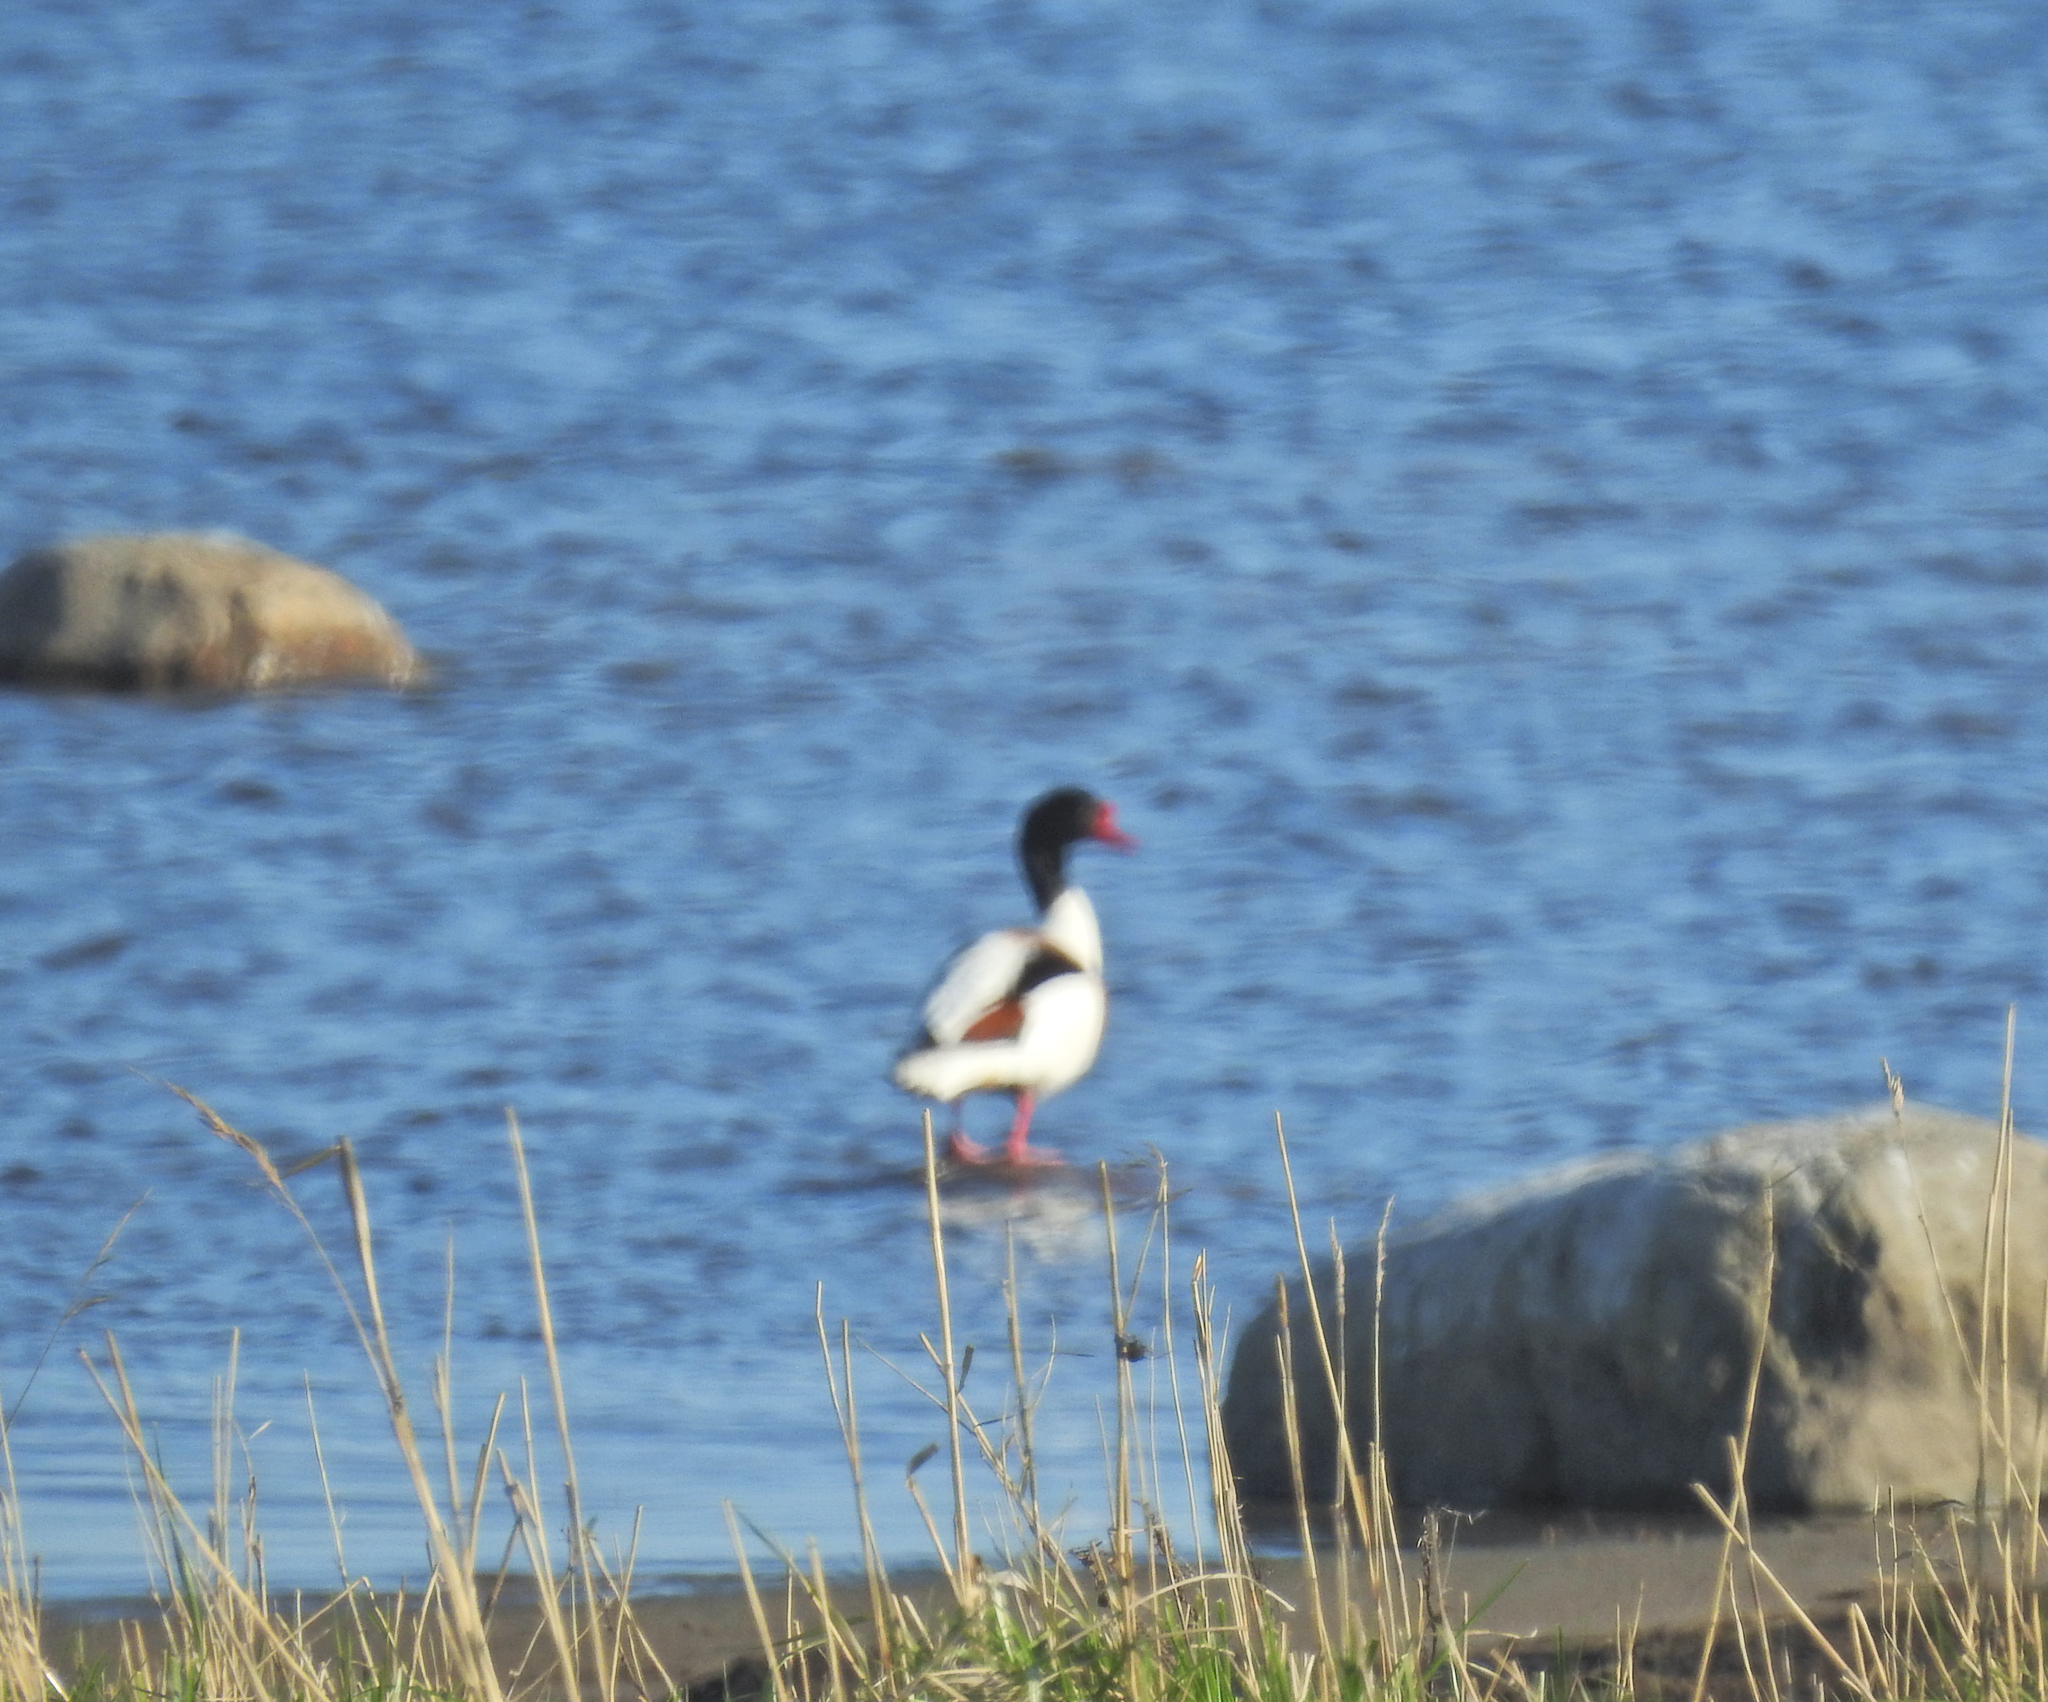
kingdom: Animalia
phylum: Chordata
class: Aves
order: Anseriformes
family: Anatidae
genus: Tadorna
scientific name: Tadorna tadorna
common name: Common shelduck
